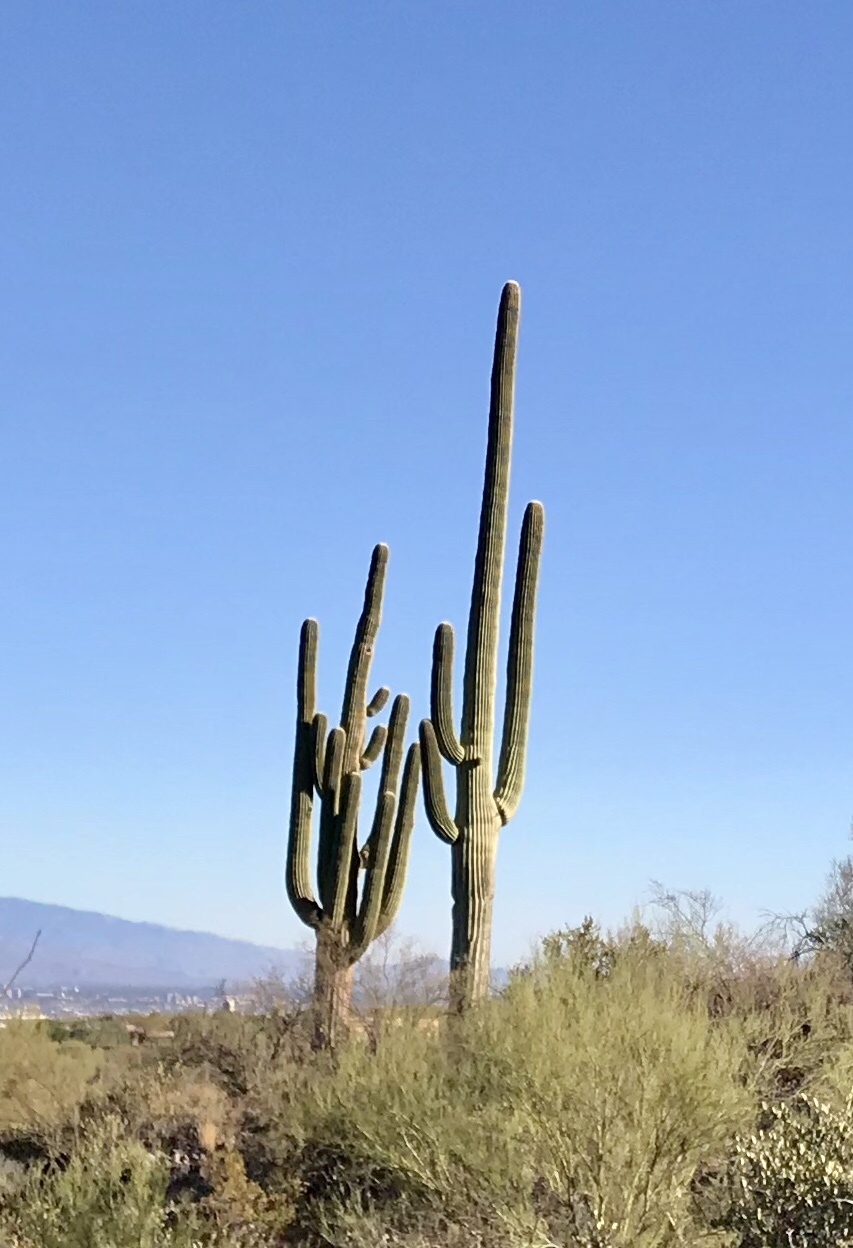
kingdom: Plantae
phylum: Tracheophyta
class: Magnoliopsida
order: Caryophyllales
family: Cactaceae
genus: Carnegiea
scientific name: Carnegiea gigantea
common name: Saguaro
